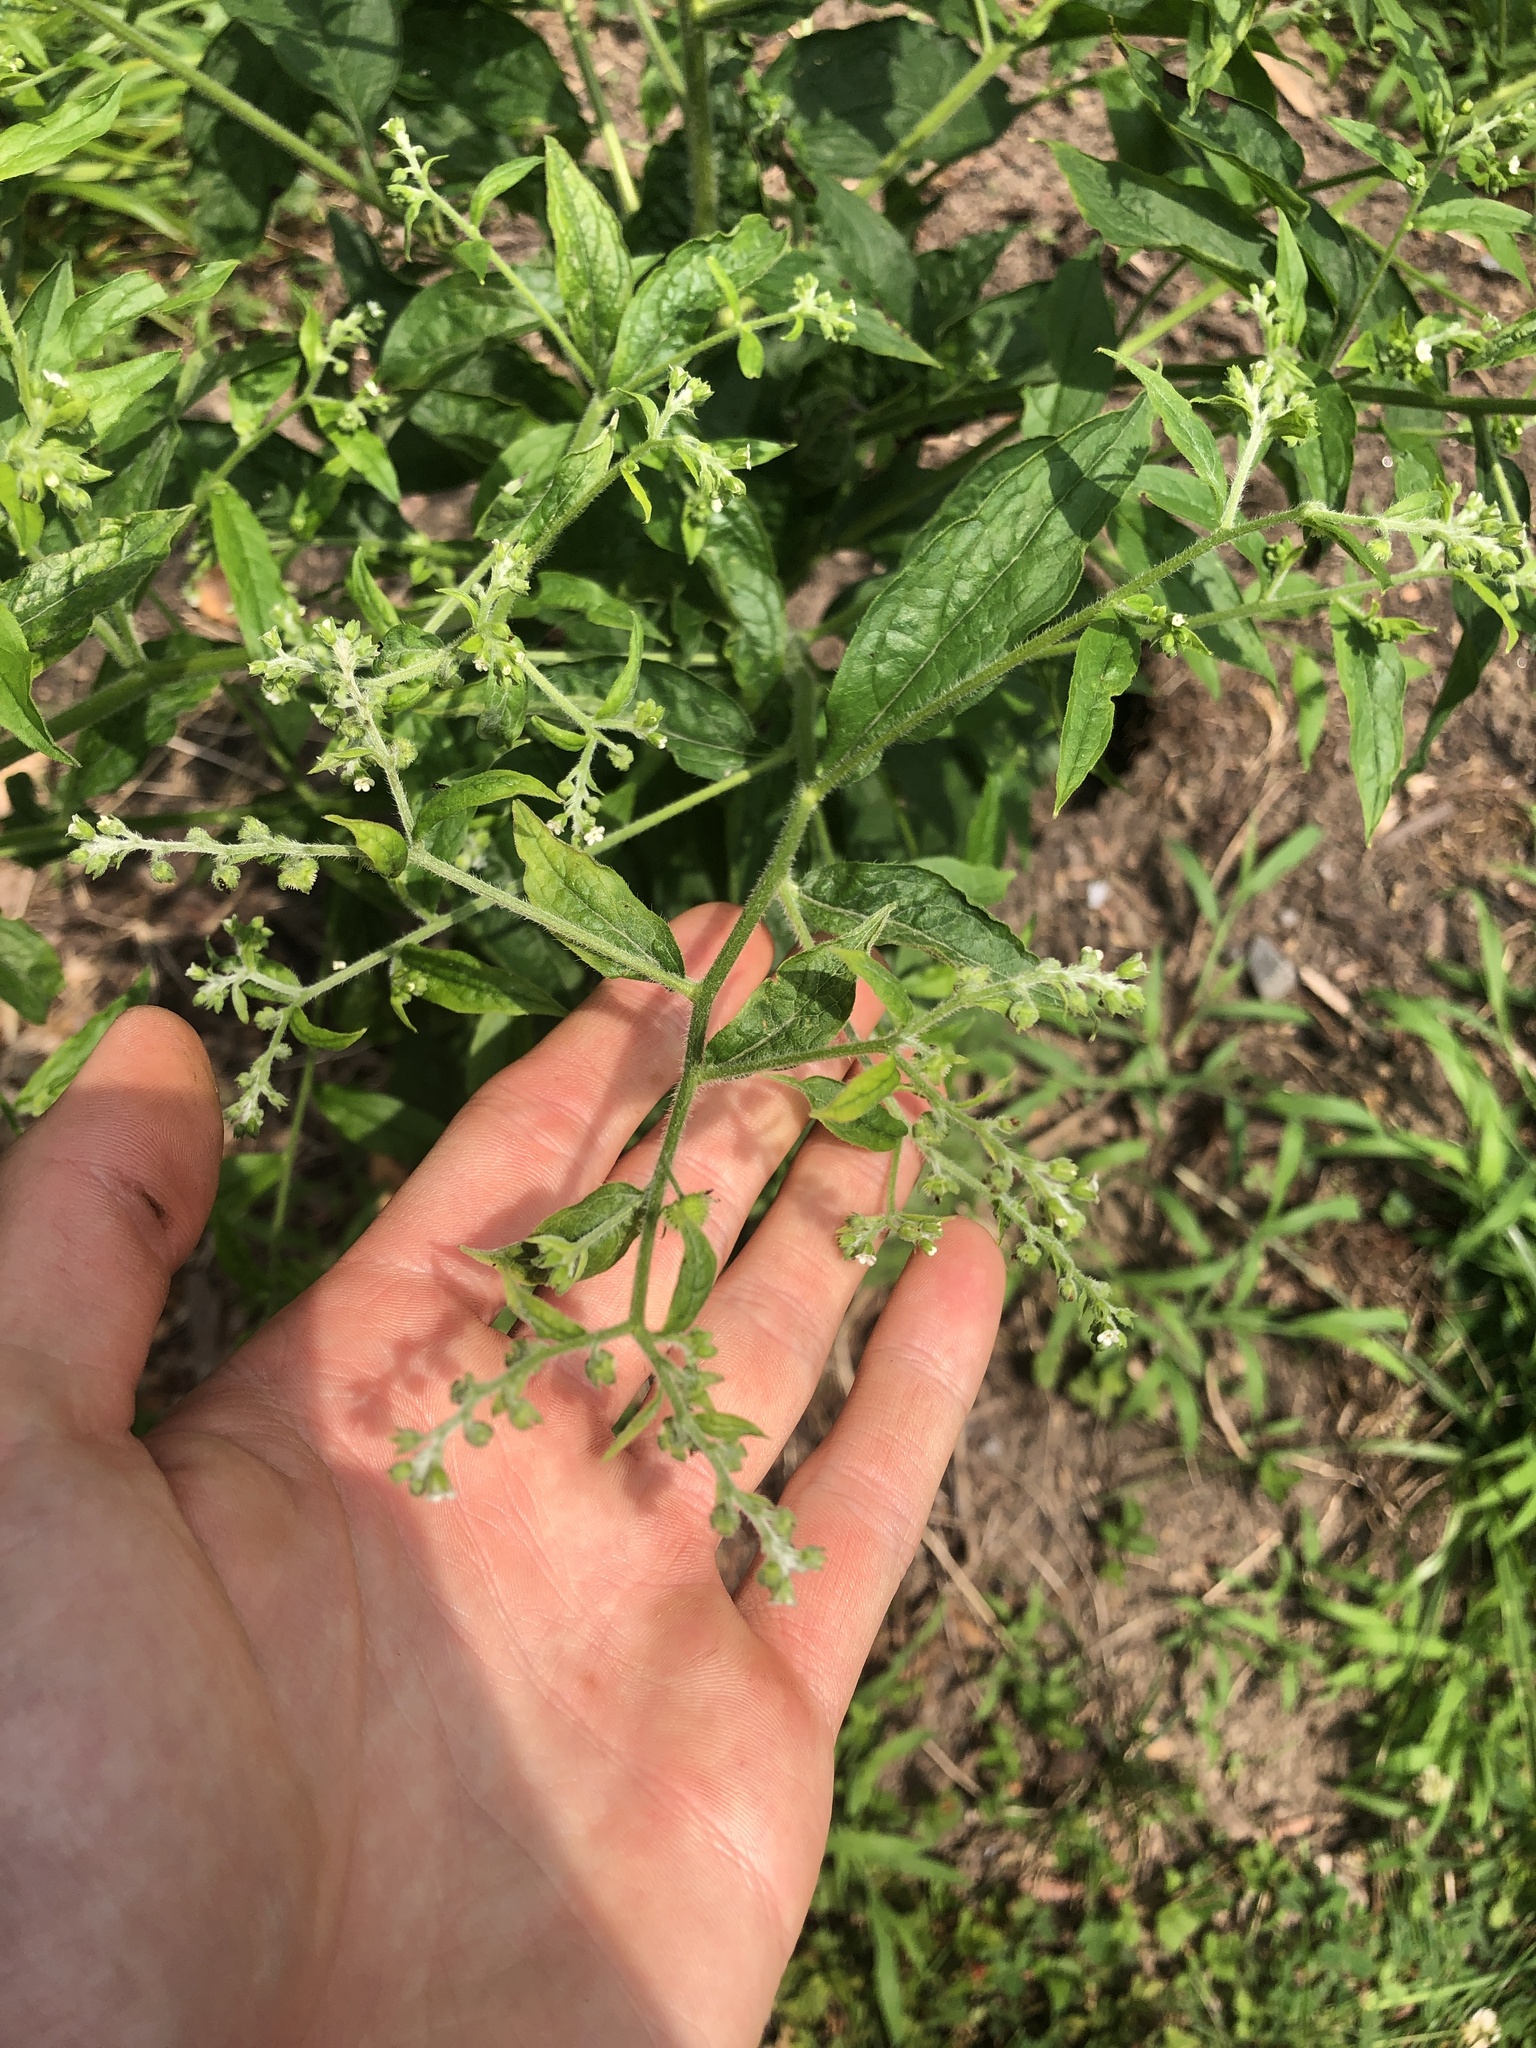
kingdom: Plantae
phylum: Tracheophyta
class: Magnoliopsida
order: Boraginales
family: Boraginaceae
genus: Hackelia
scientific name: Hackelia virginiana
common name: Beggar's-lice
